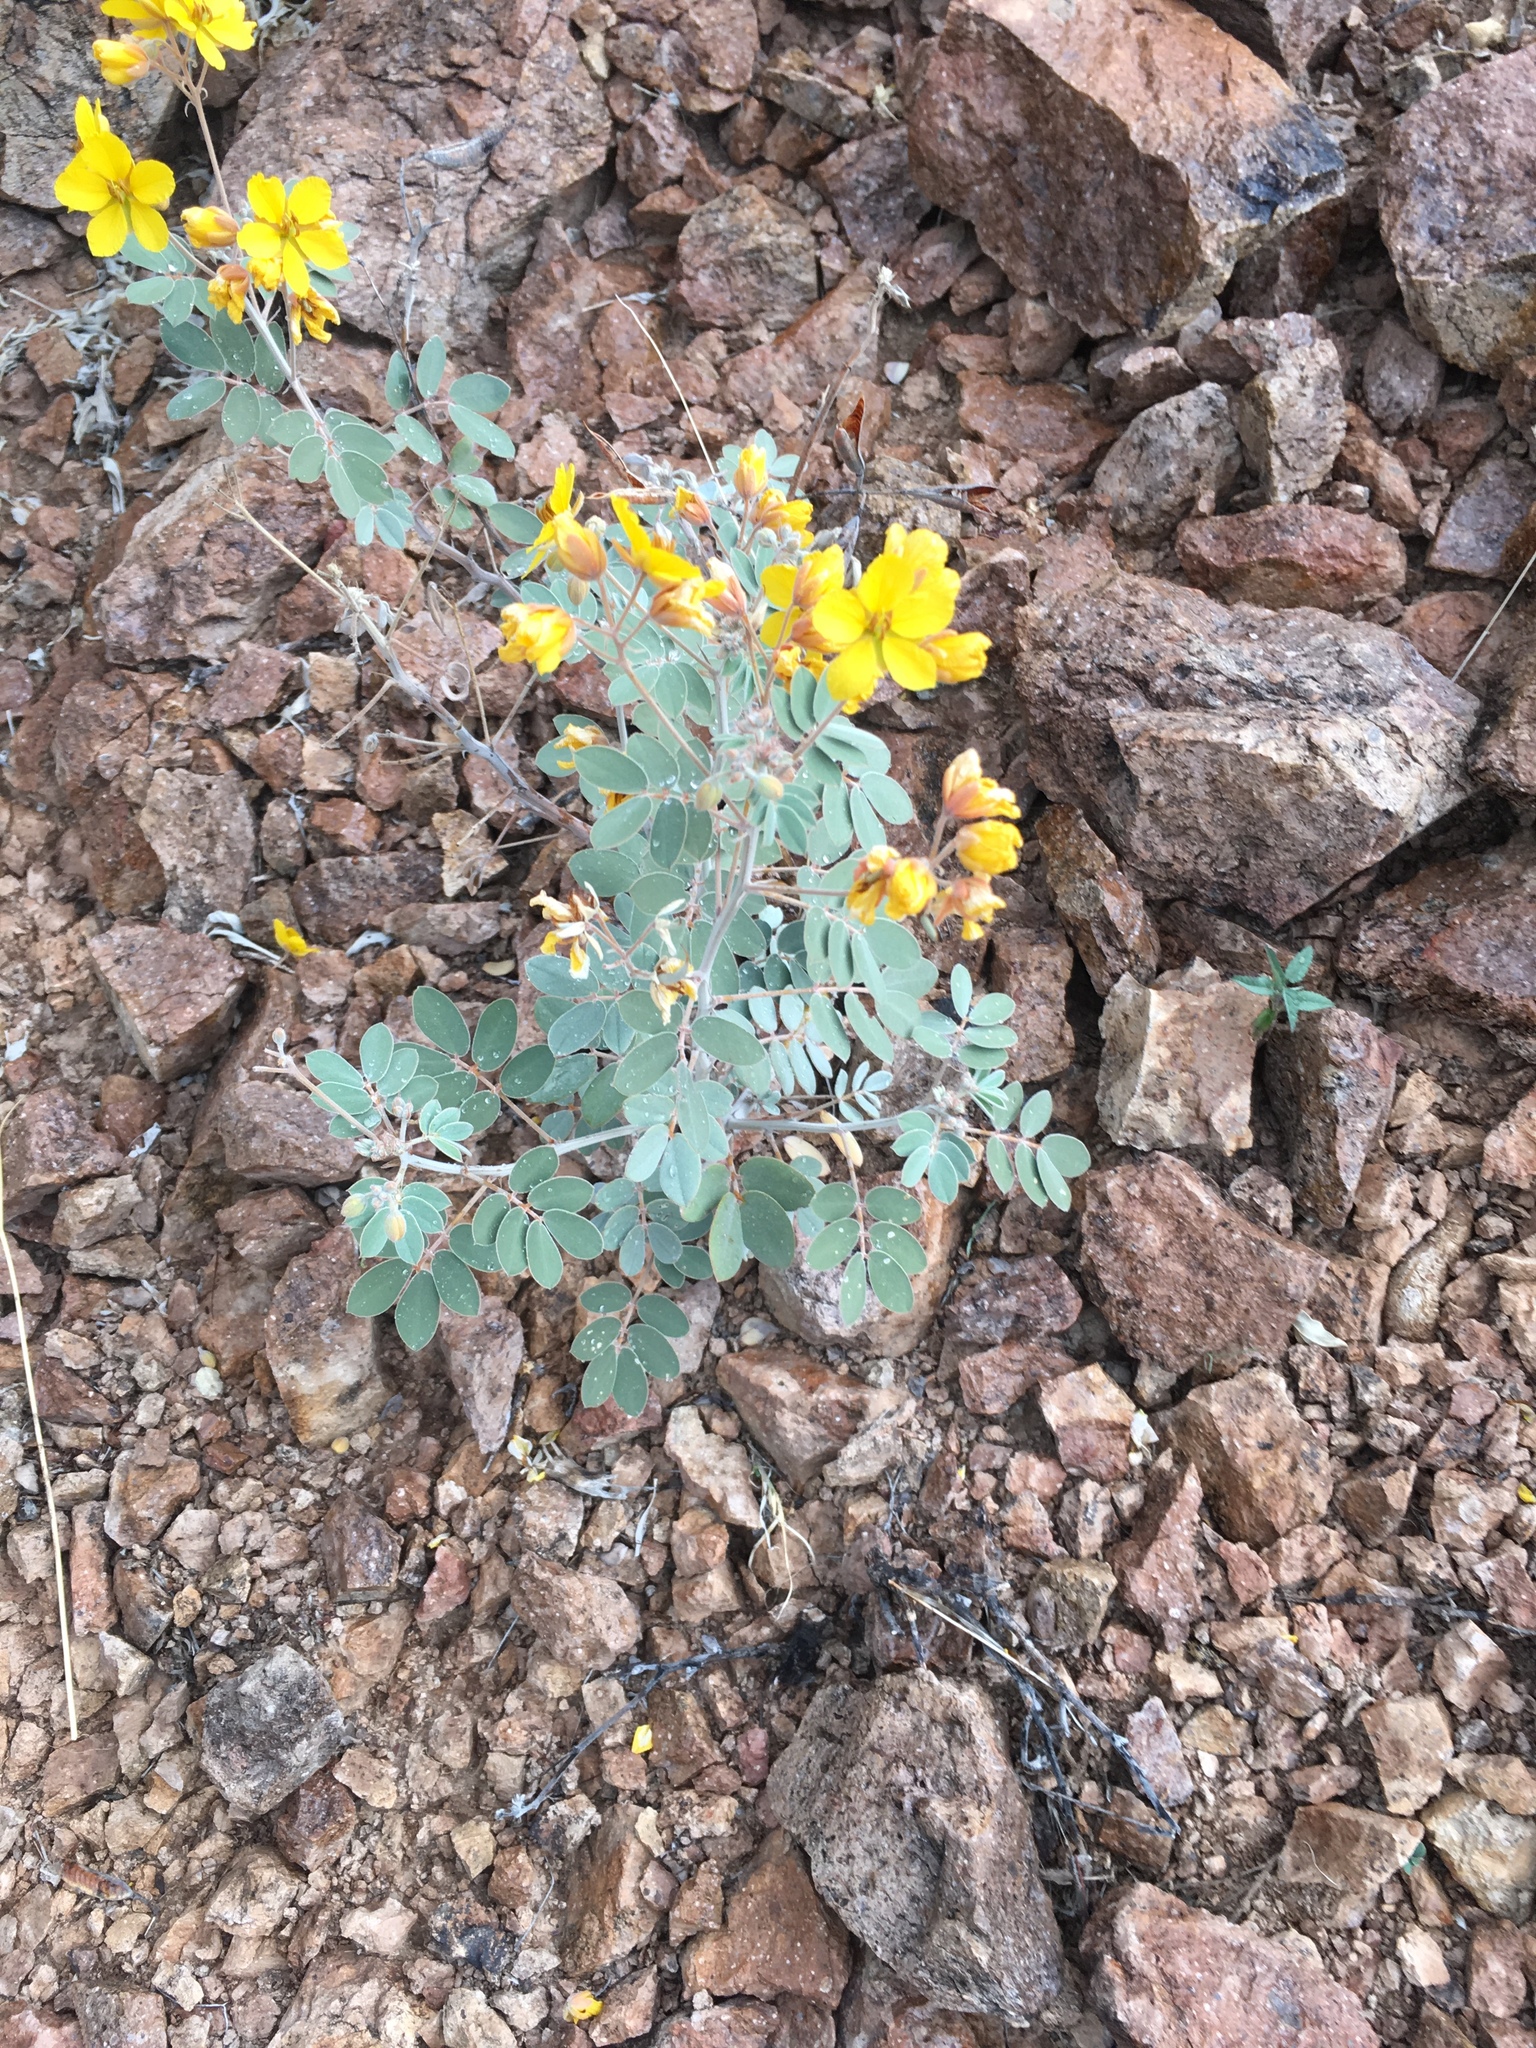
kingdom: Plantae
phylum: Tracheophyta
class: Magnoliopsida
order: Fabales
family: Fabaceae
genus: Senna
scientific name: Senna covesii
